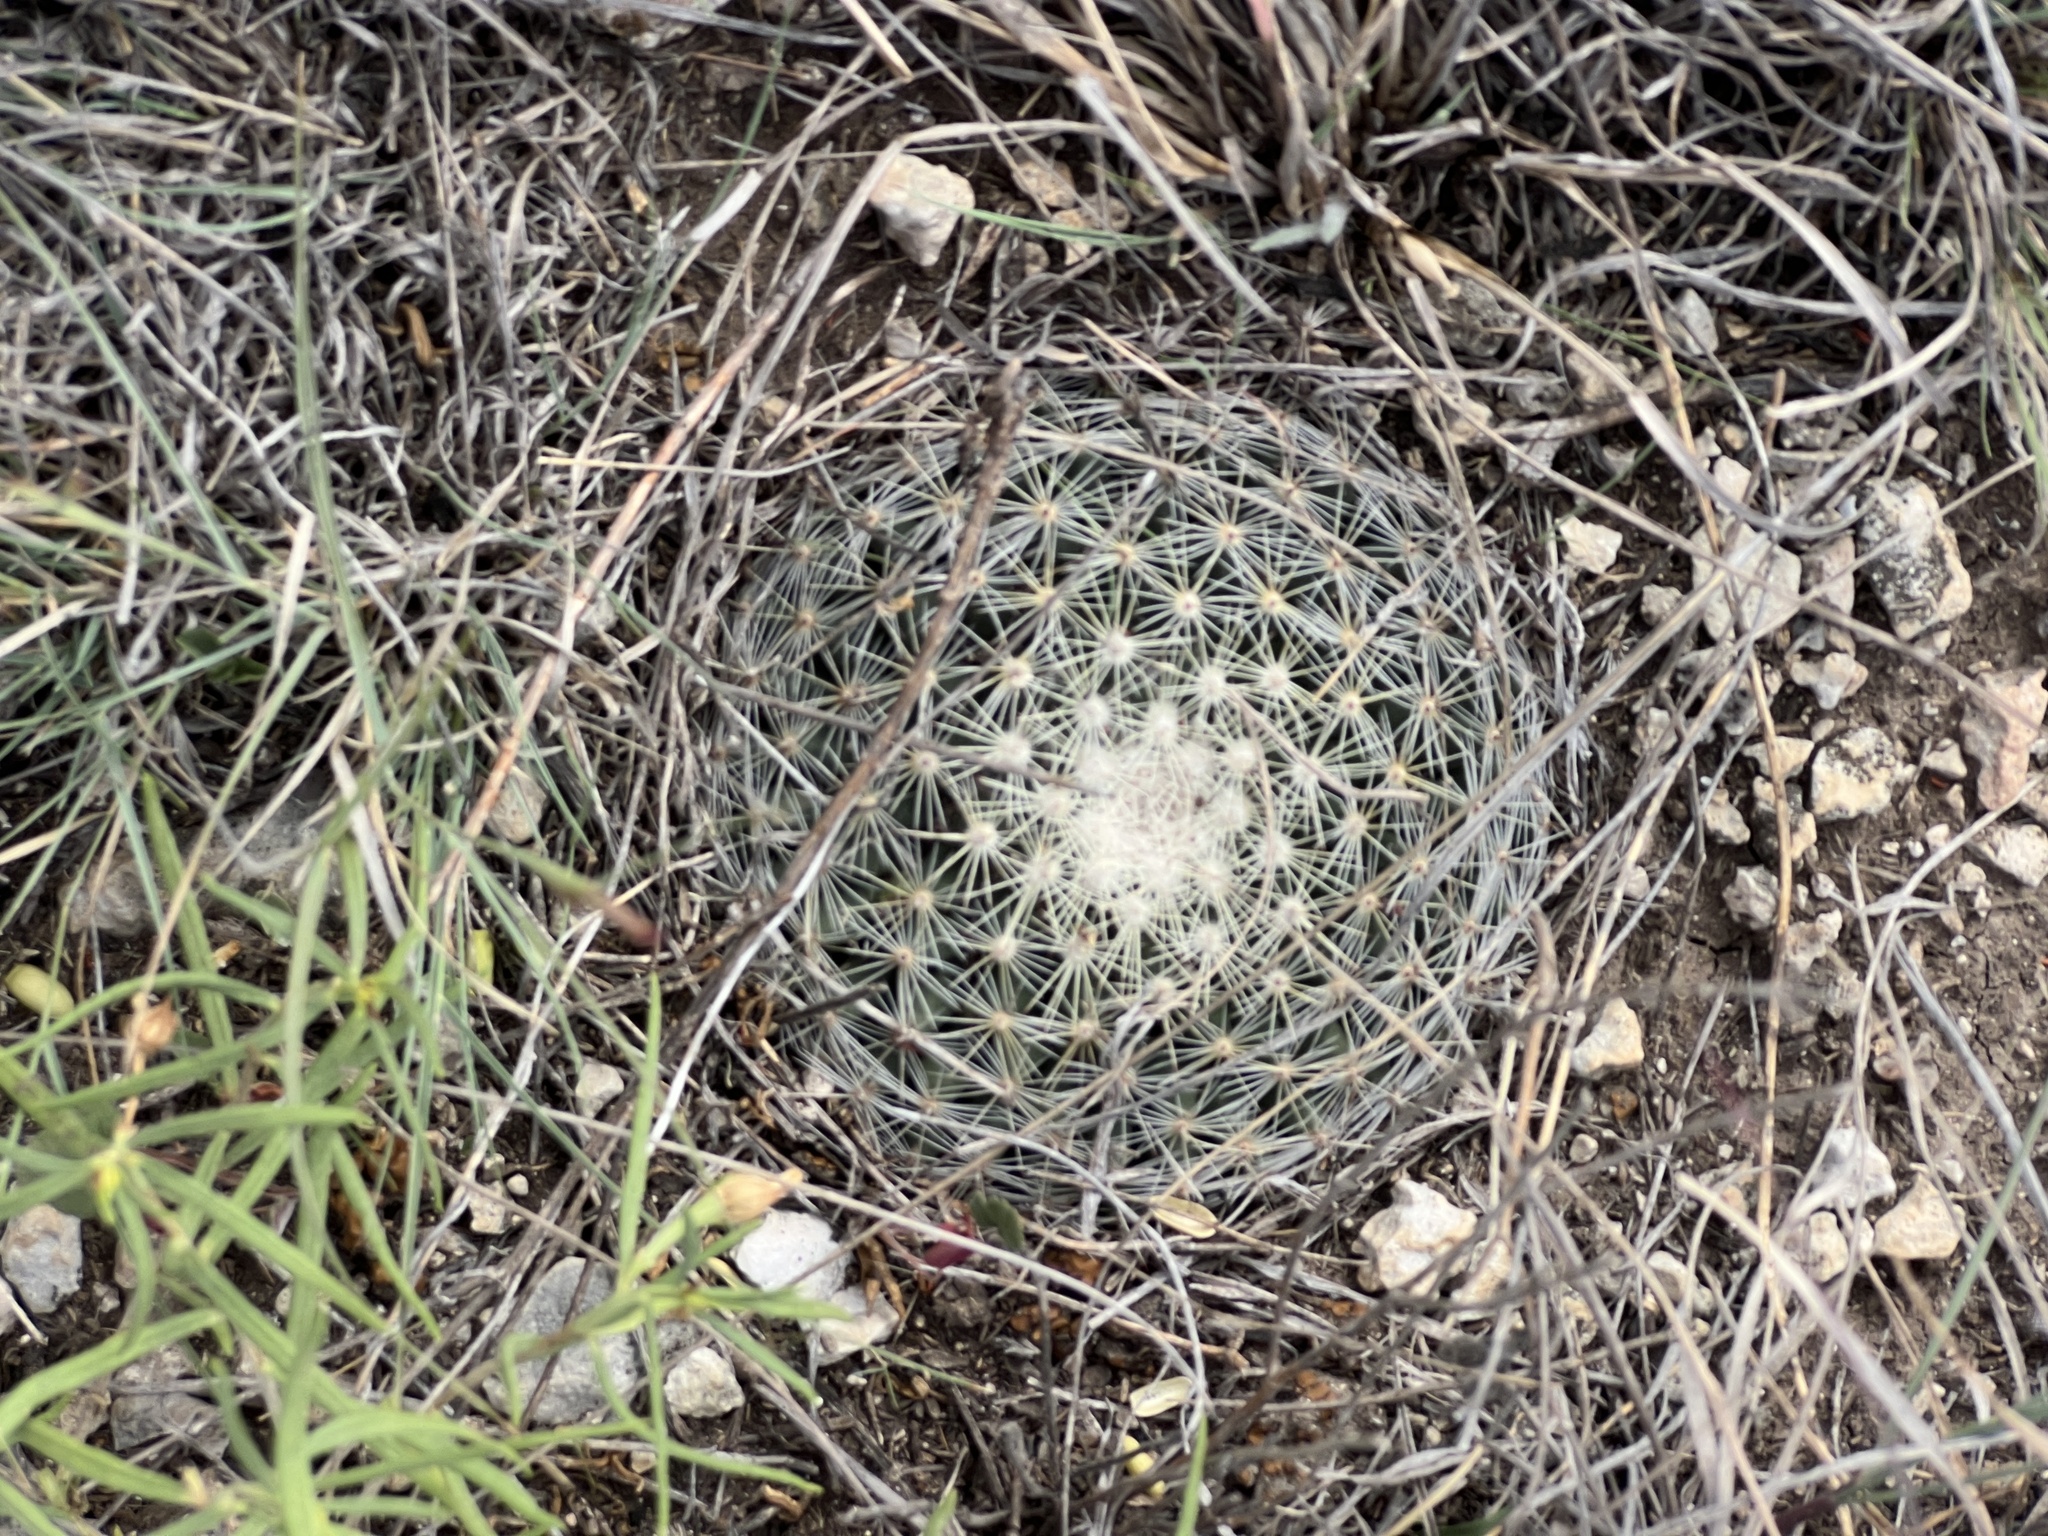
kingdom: Plantae
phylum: Tracheophyta
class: Magnoliopsida
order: Caryophyllales
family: Cactaceae
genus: Mammillaria
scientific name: Mammillaria heyderi
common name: Little nipple cactus
